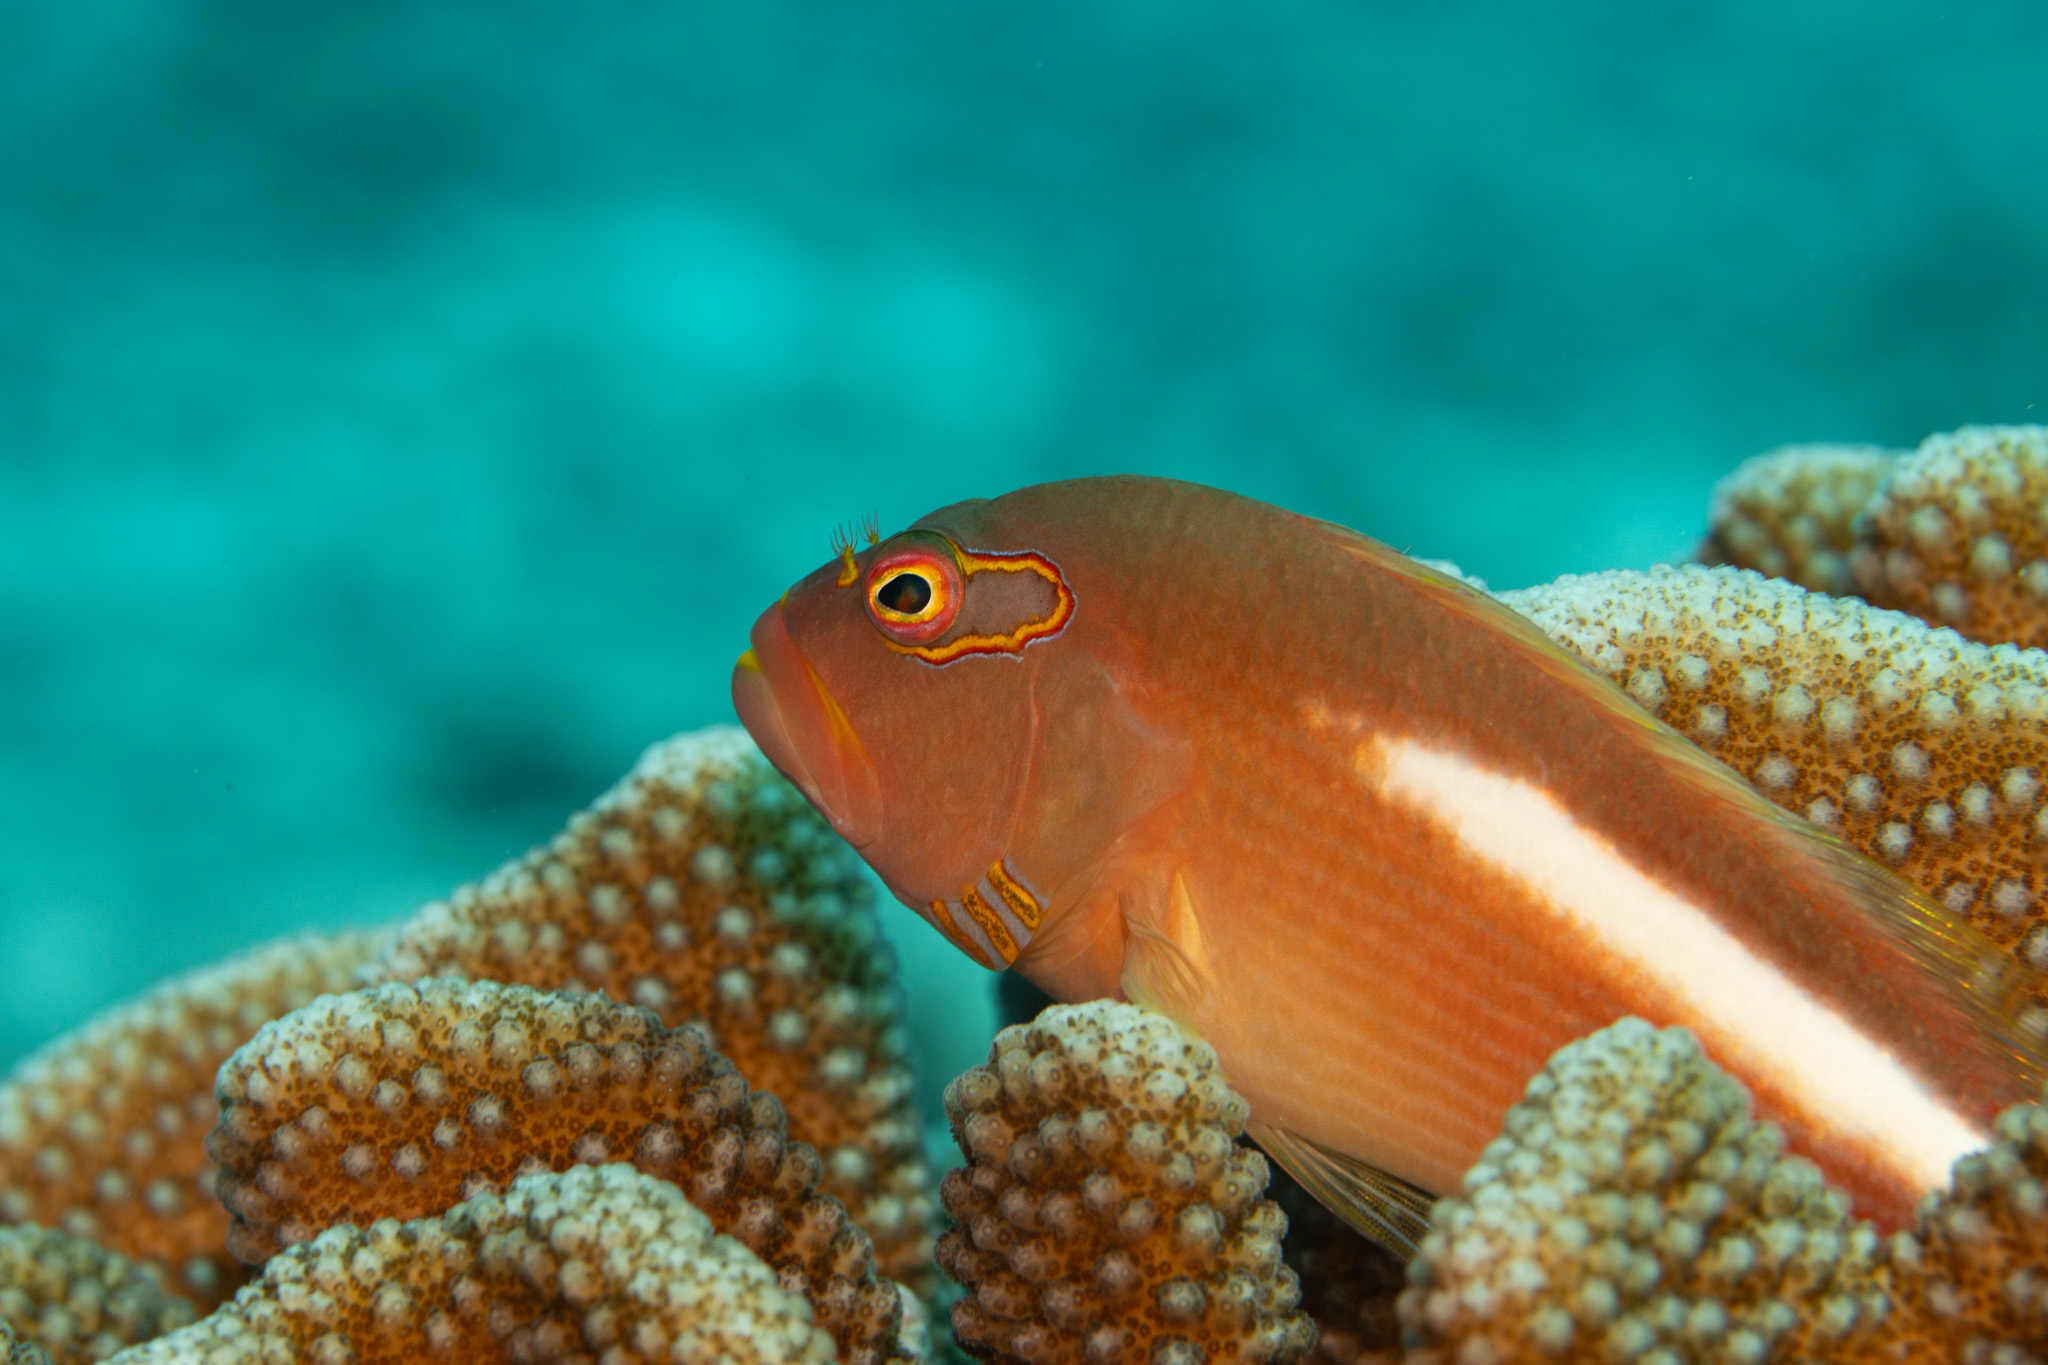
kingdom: Animalia
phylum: Chordata
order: Perciformes
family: Cirrhitidae
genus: Paracirrhites
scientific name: Paracirrhites arcatus
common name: Arc-eye hawkfish
